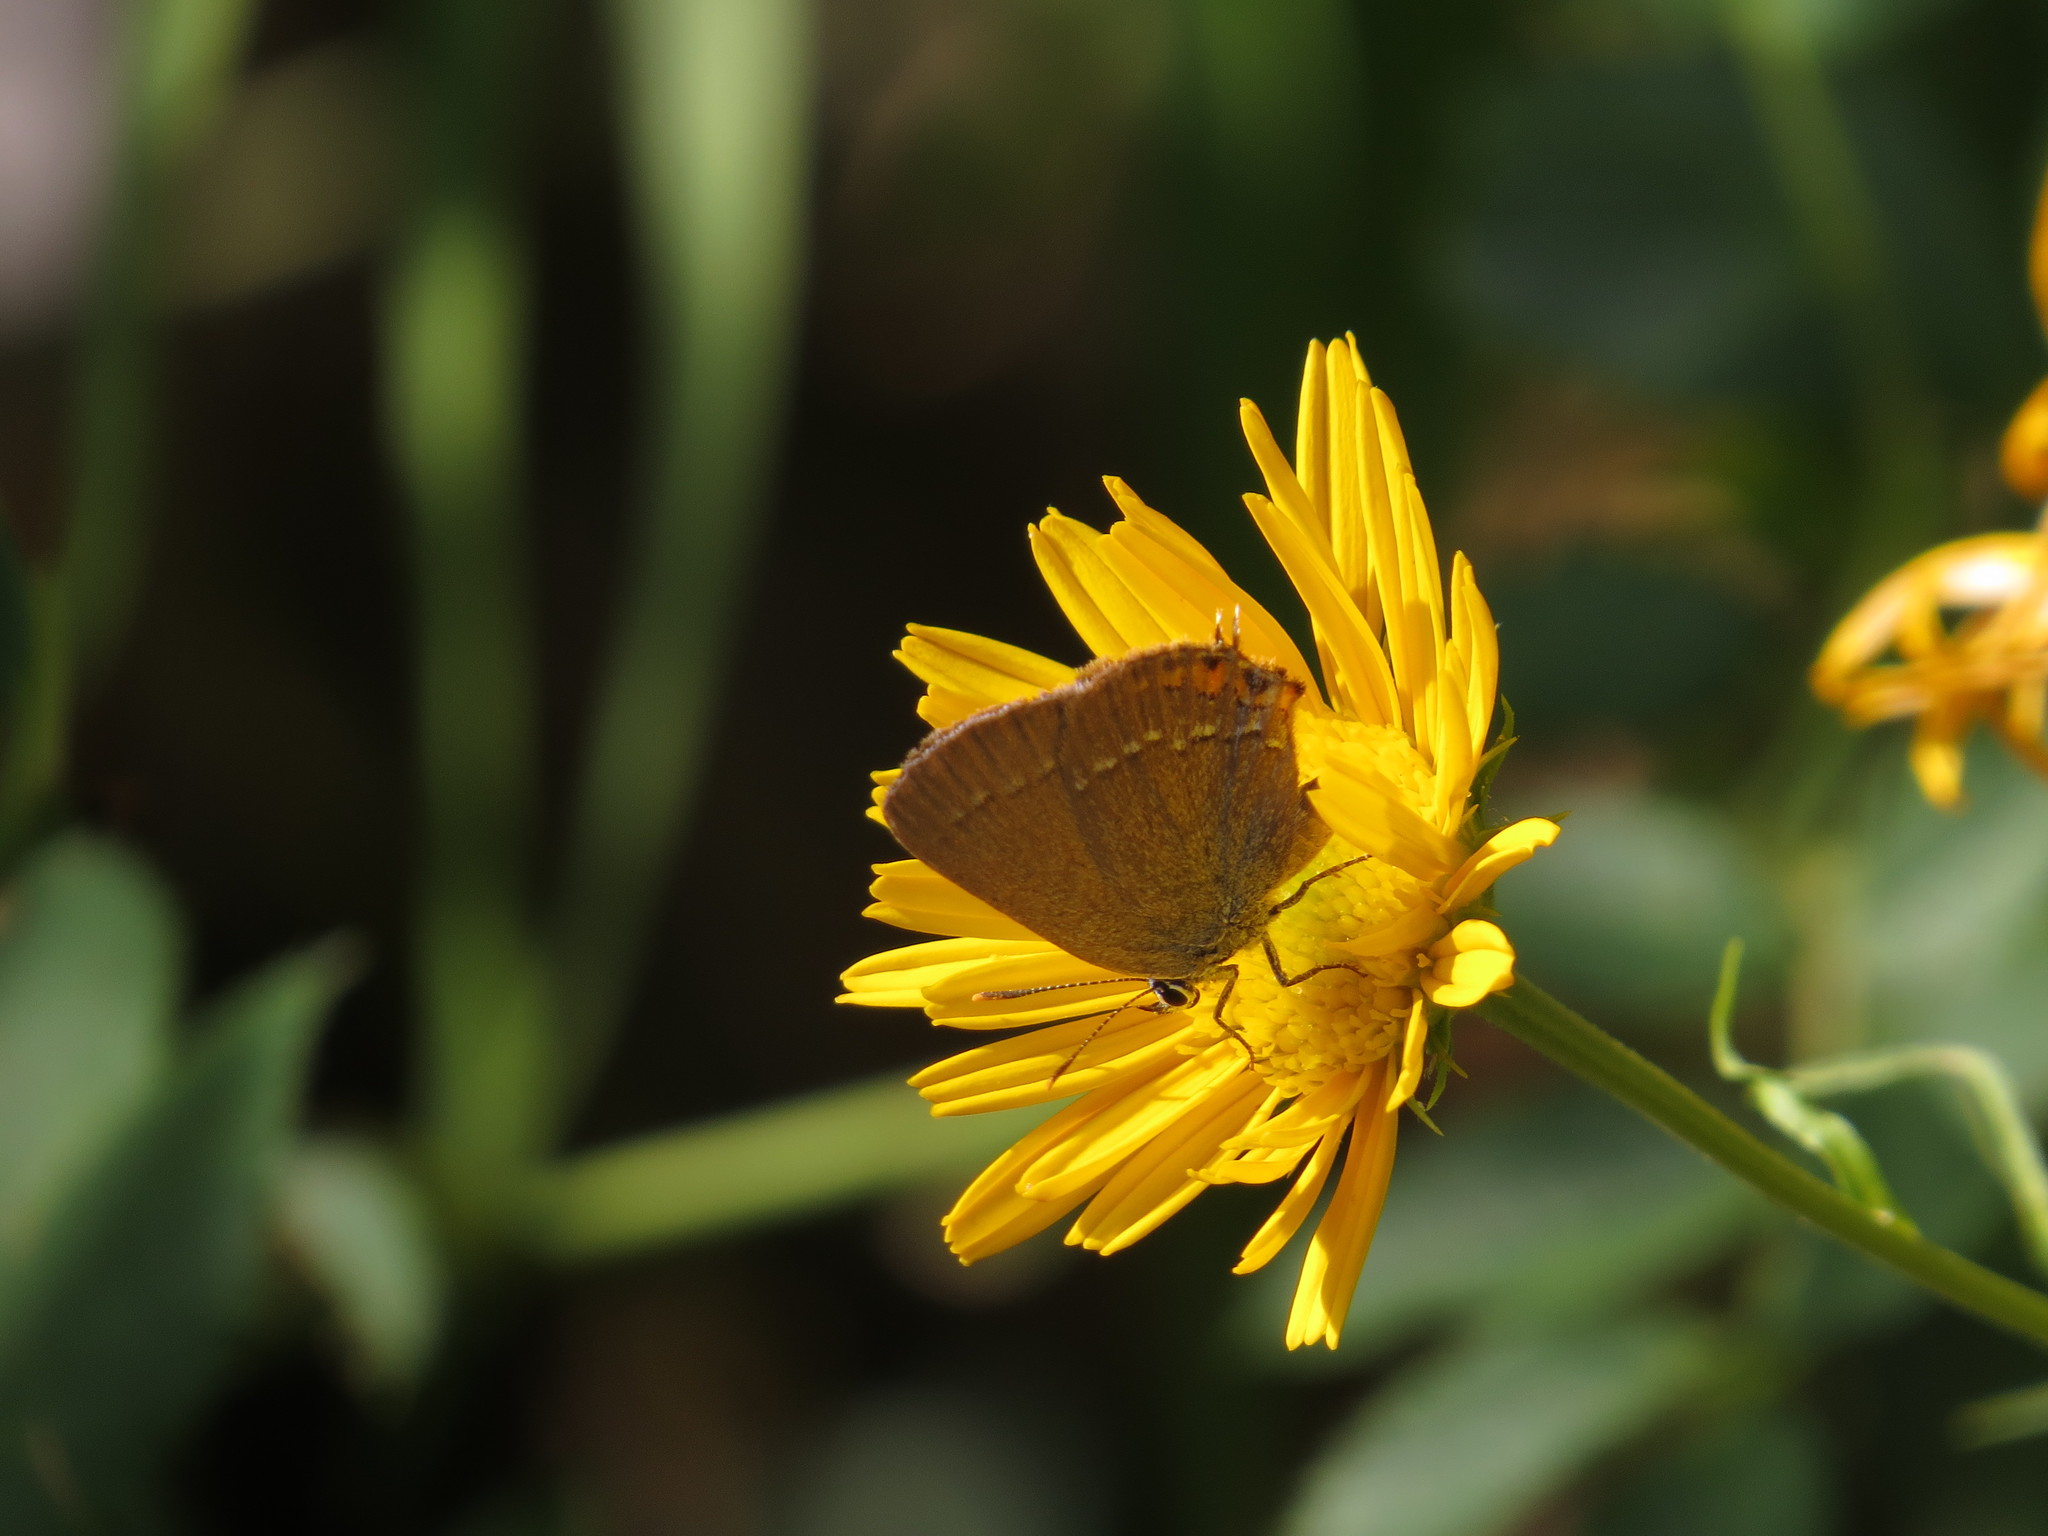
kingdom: Animalia
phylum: Arthropoda
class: Insecta
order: Lepidoptera
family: Lycaenidae
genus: Strymon
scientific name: Strymon acaciae
